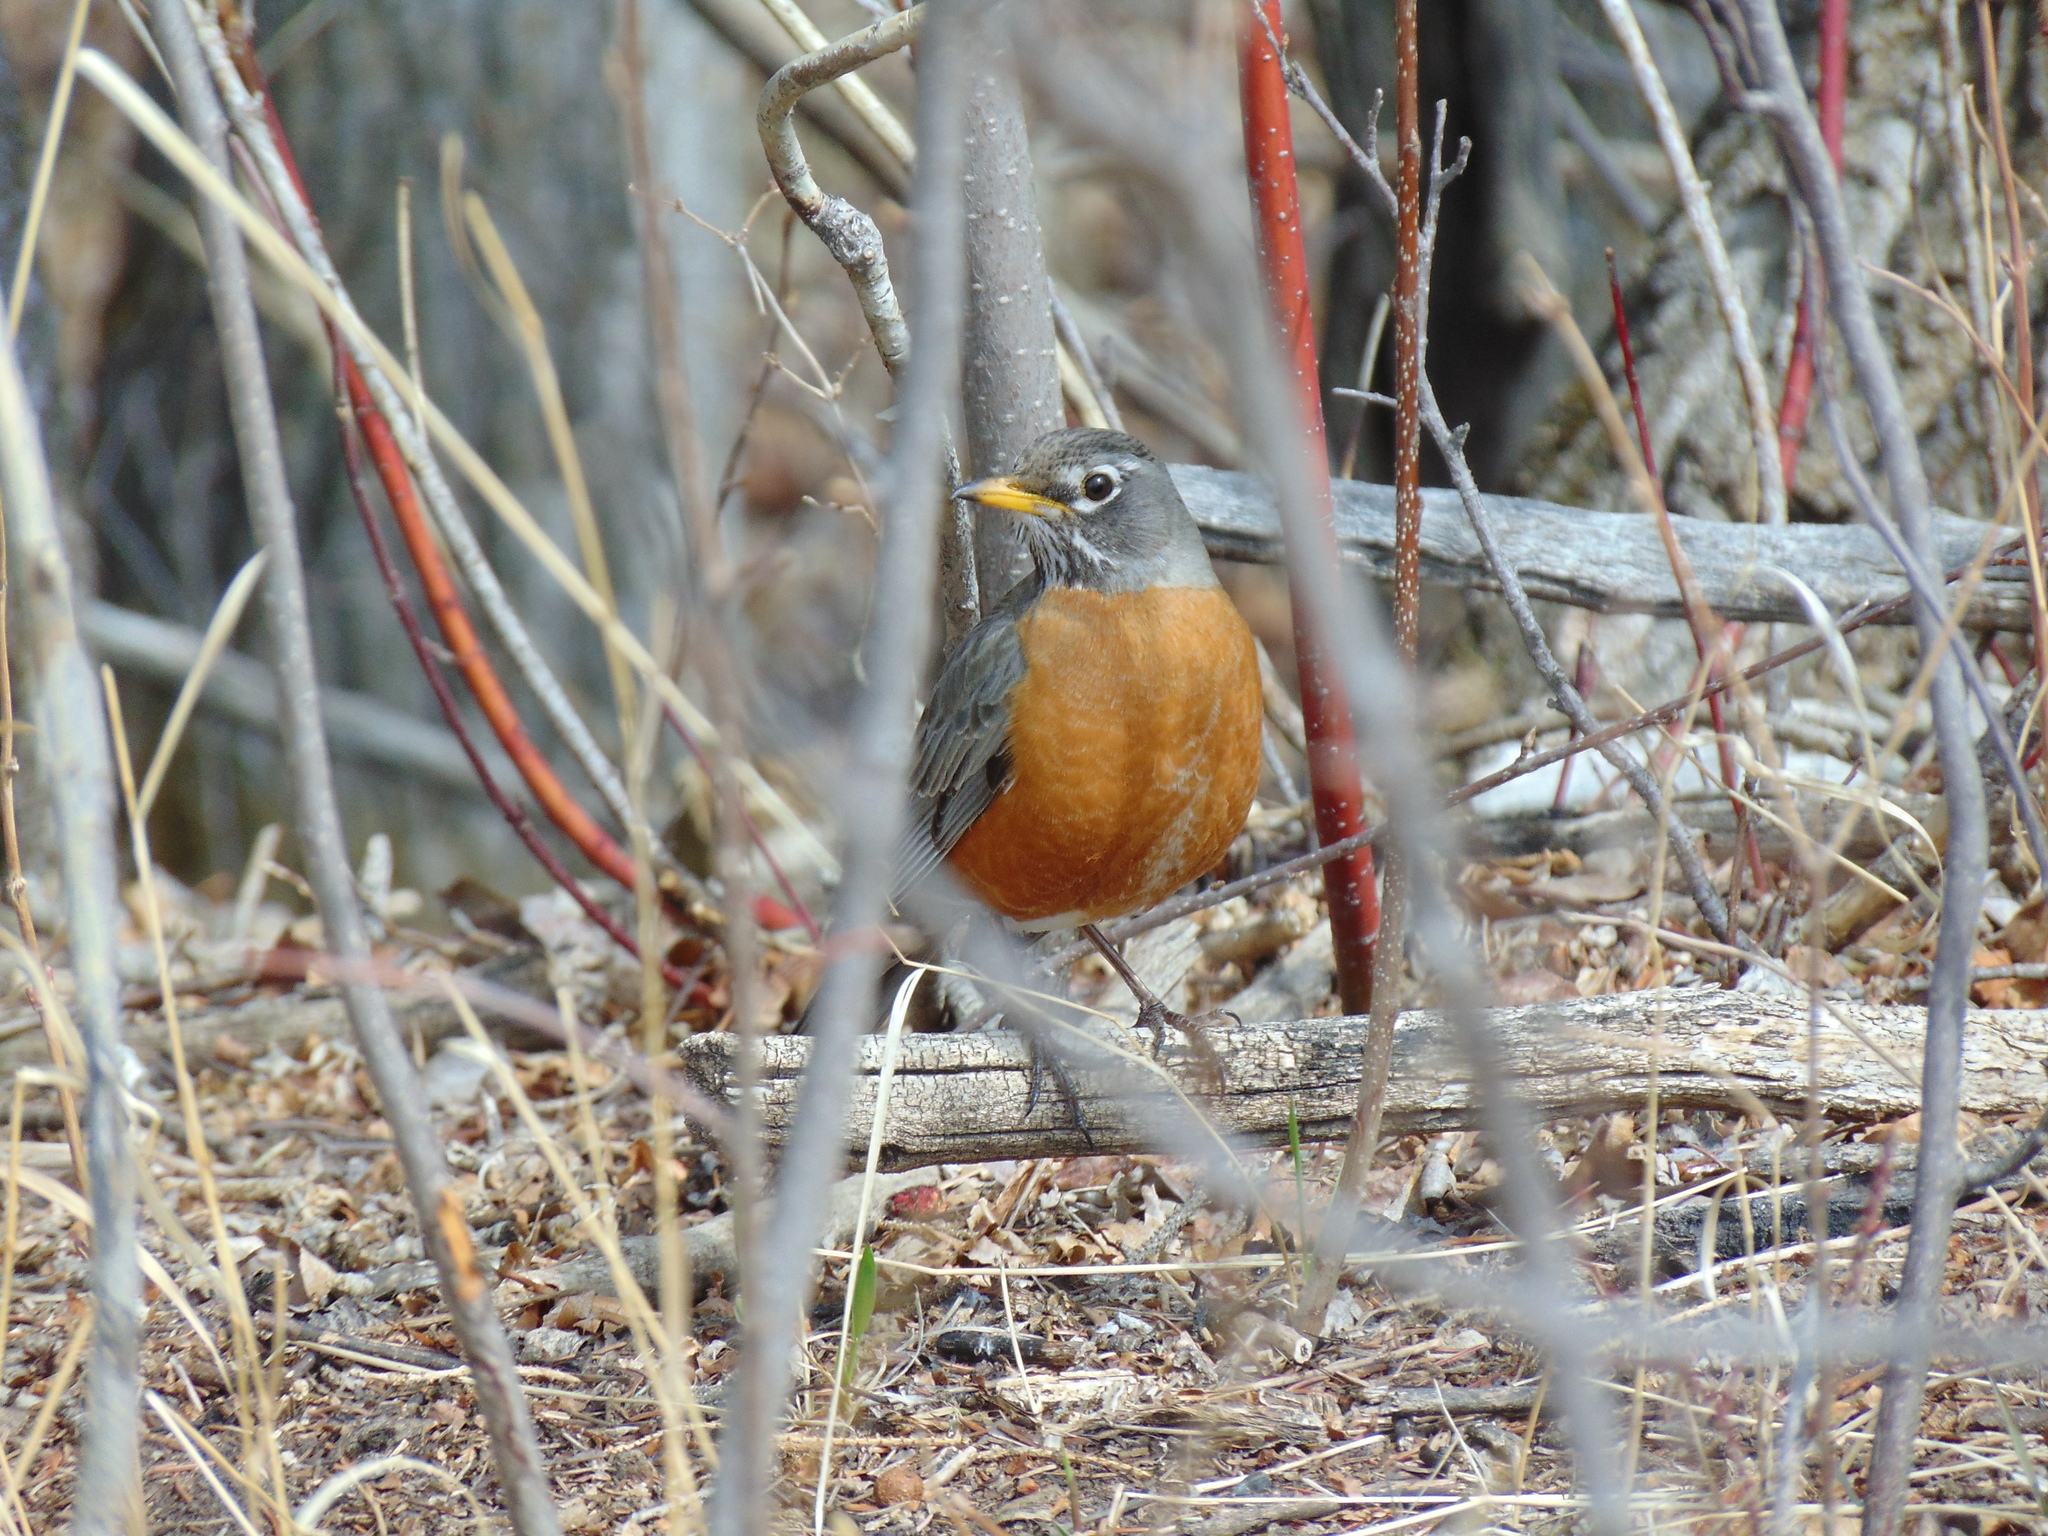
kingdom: Animalia
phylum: Chordata
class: Aves
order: Passeriformes
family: Turdidae
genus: Turdus
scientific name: Turdus migratorius
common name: American robin
